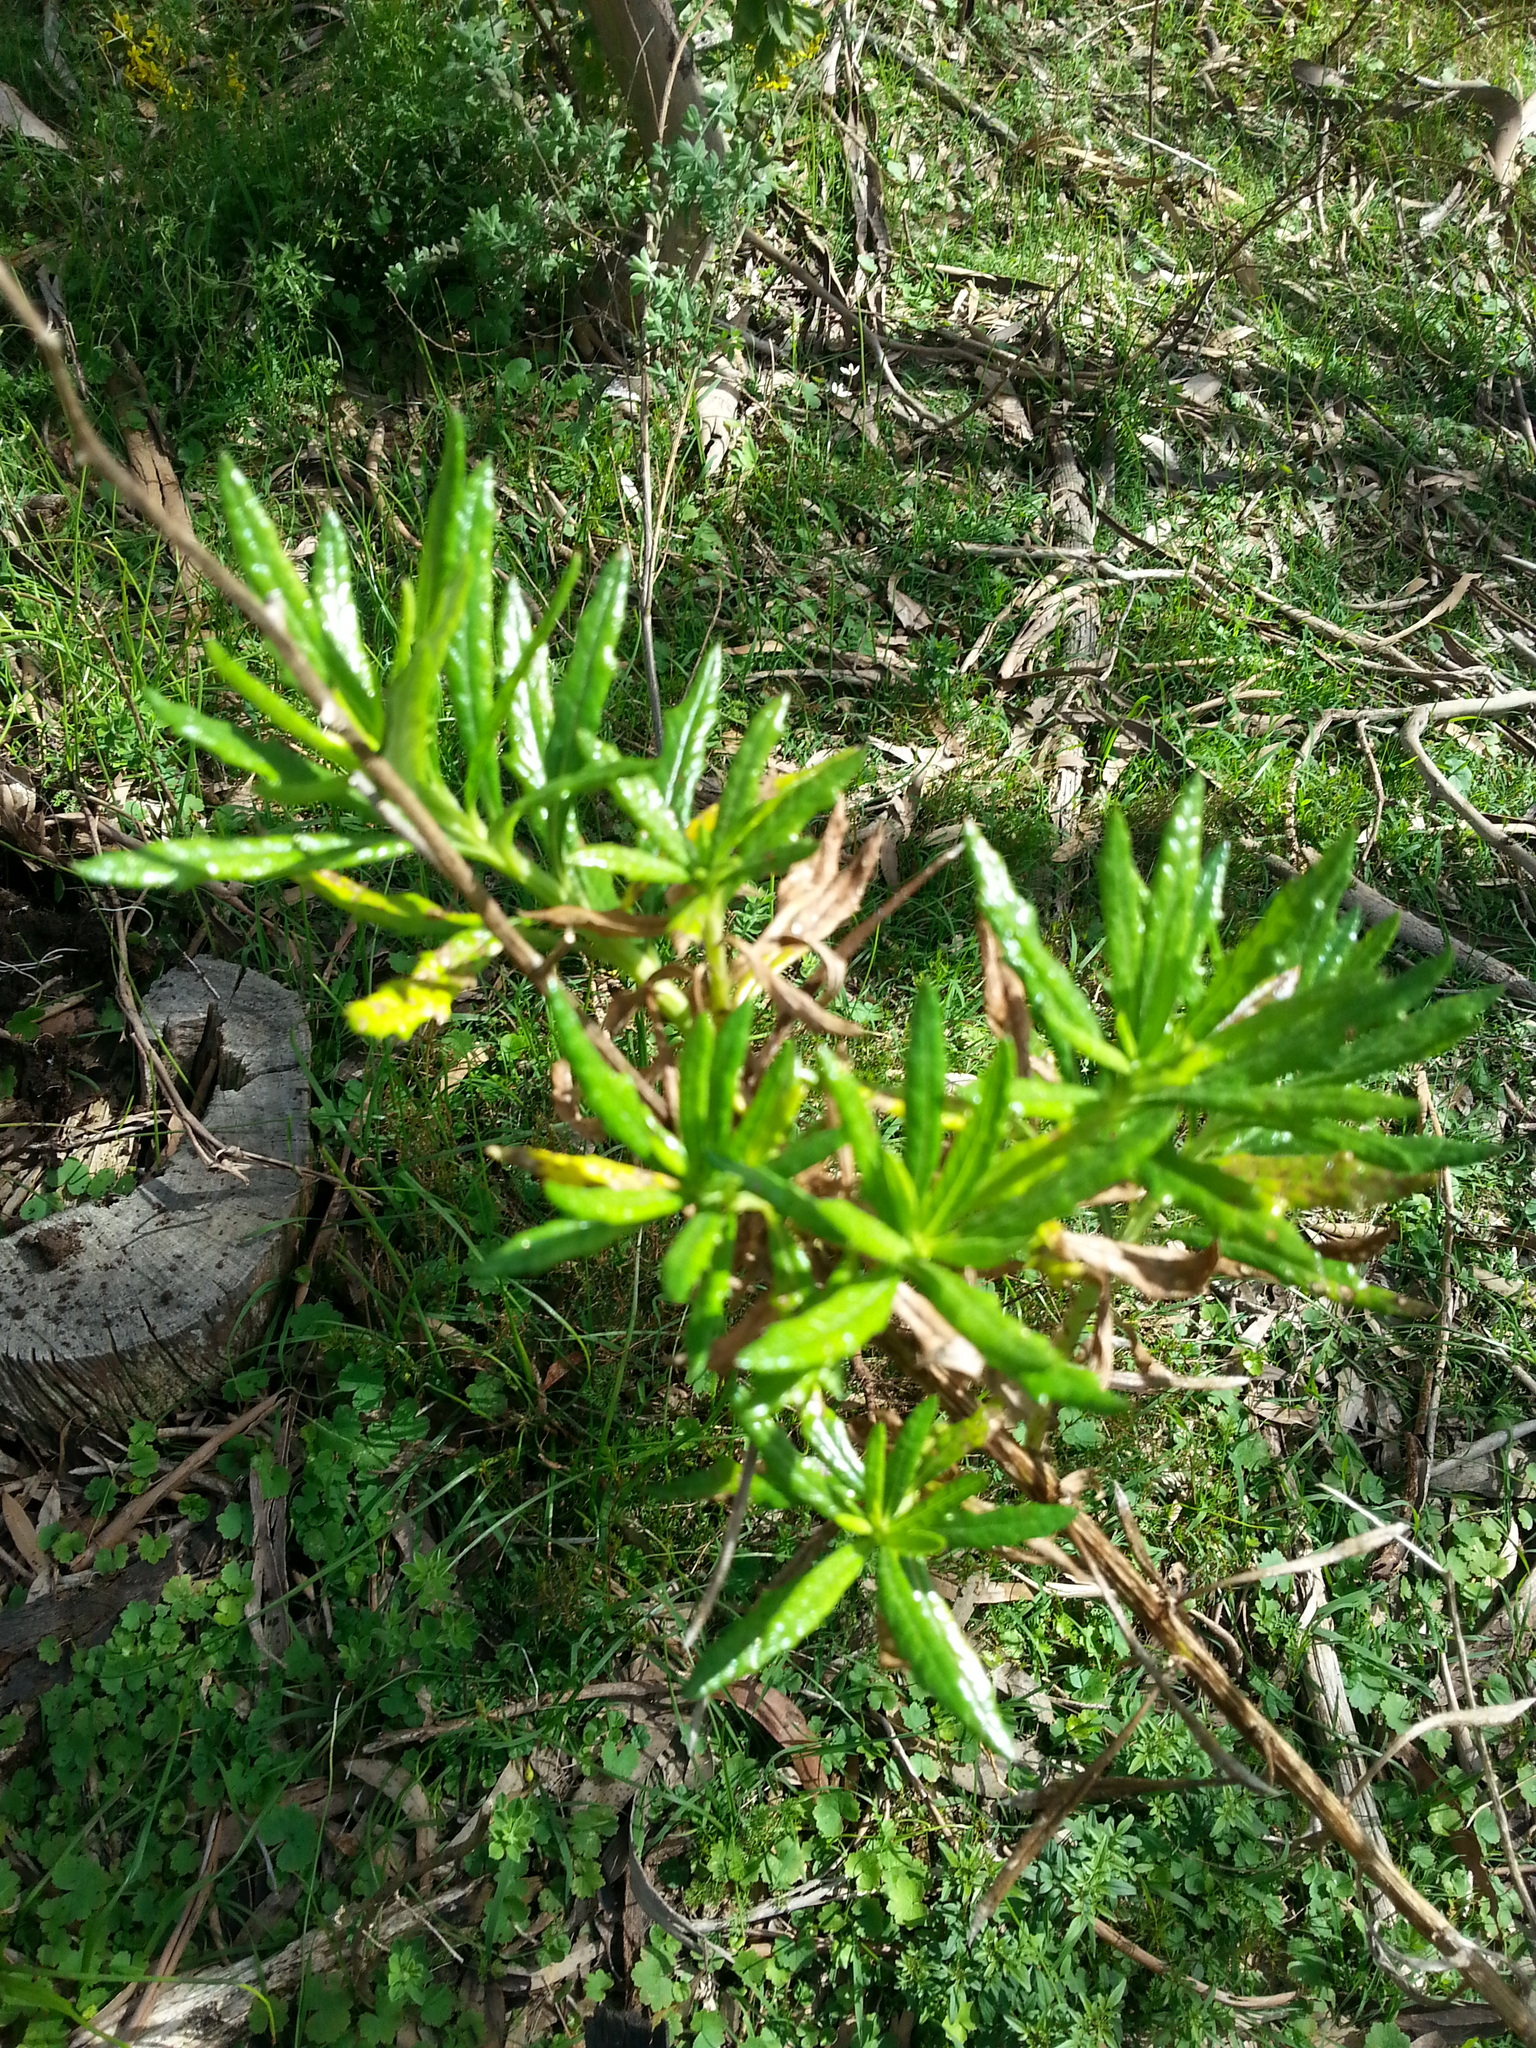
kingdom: Plantae
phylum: Tracheophyta
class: Magnoliopsida
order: Asterales
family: Asteraceae
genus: Senecio
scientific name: Senecio pterophorus
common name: Shoddy ragwort
